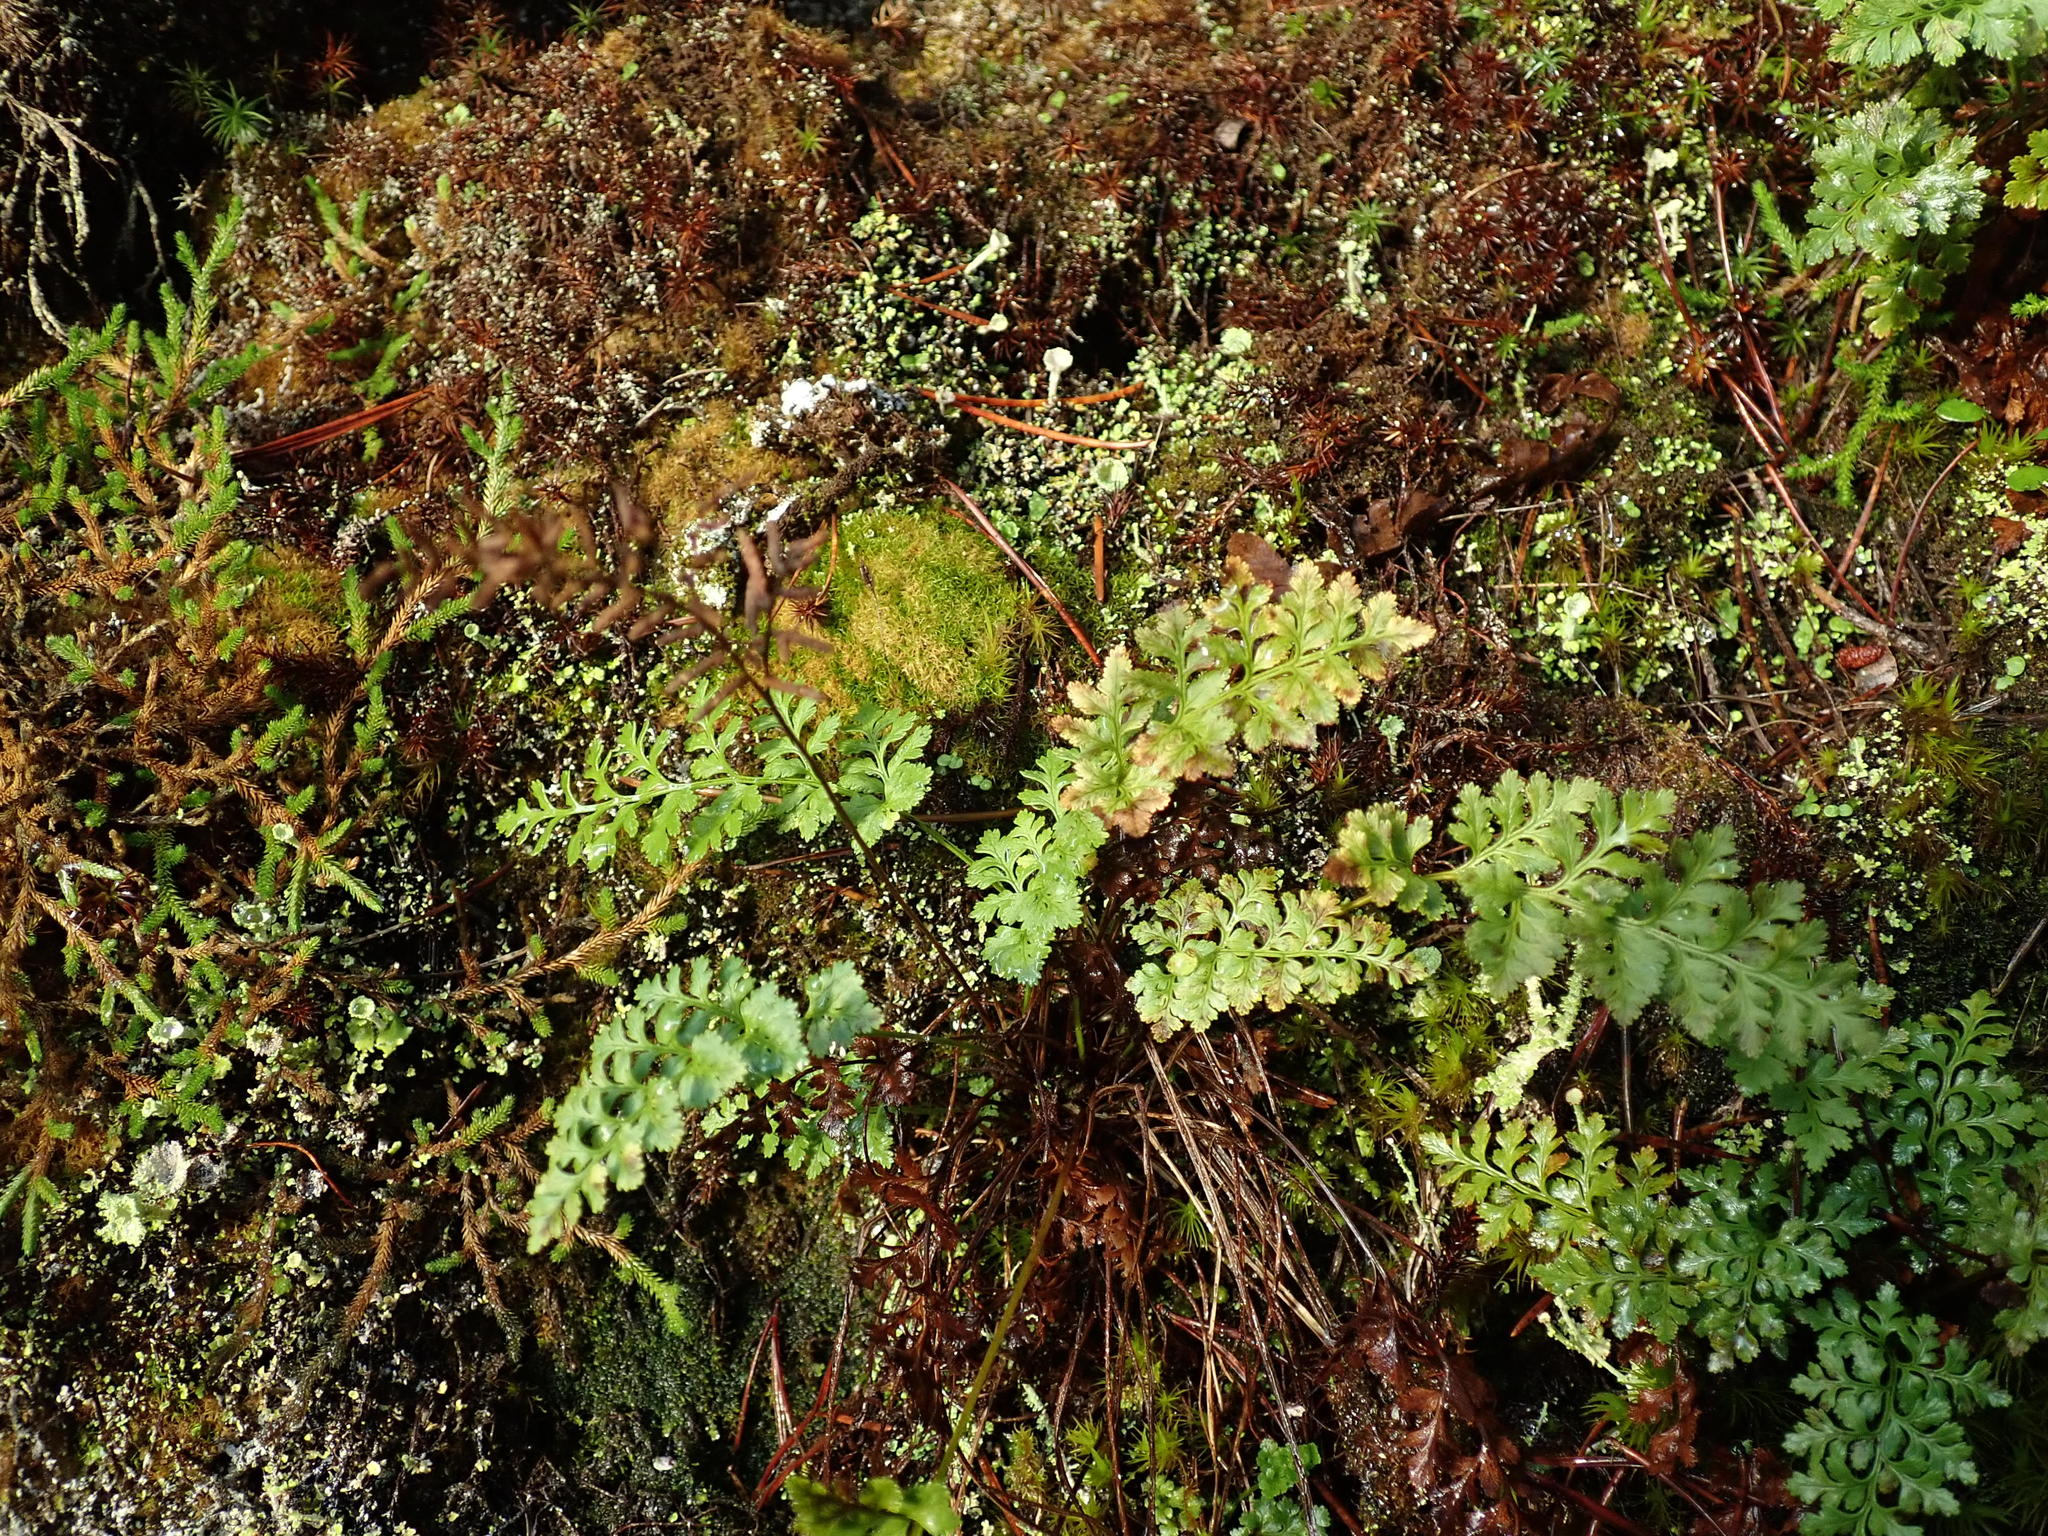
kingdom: Plantae
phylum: Tracheophyta
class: Polypodiopsida
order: Polypodiales
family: Pteridaceae
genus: Cryptogramma
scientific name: Cryptogramma acrostichoides
